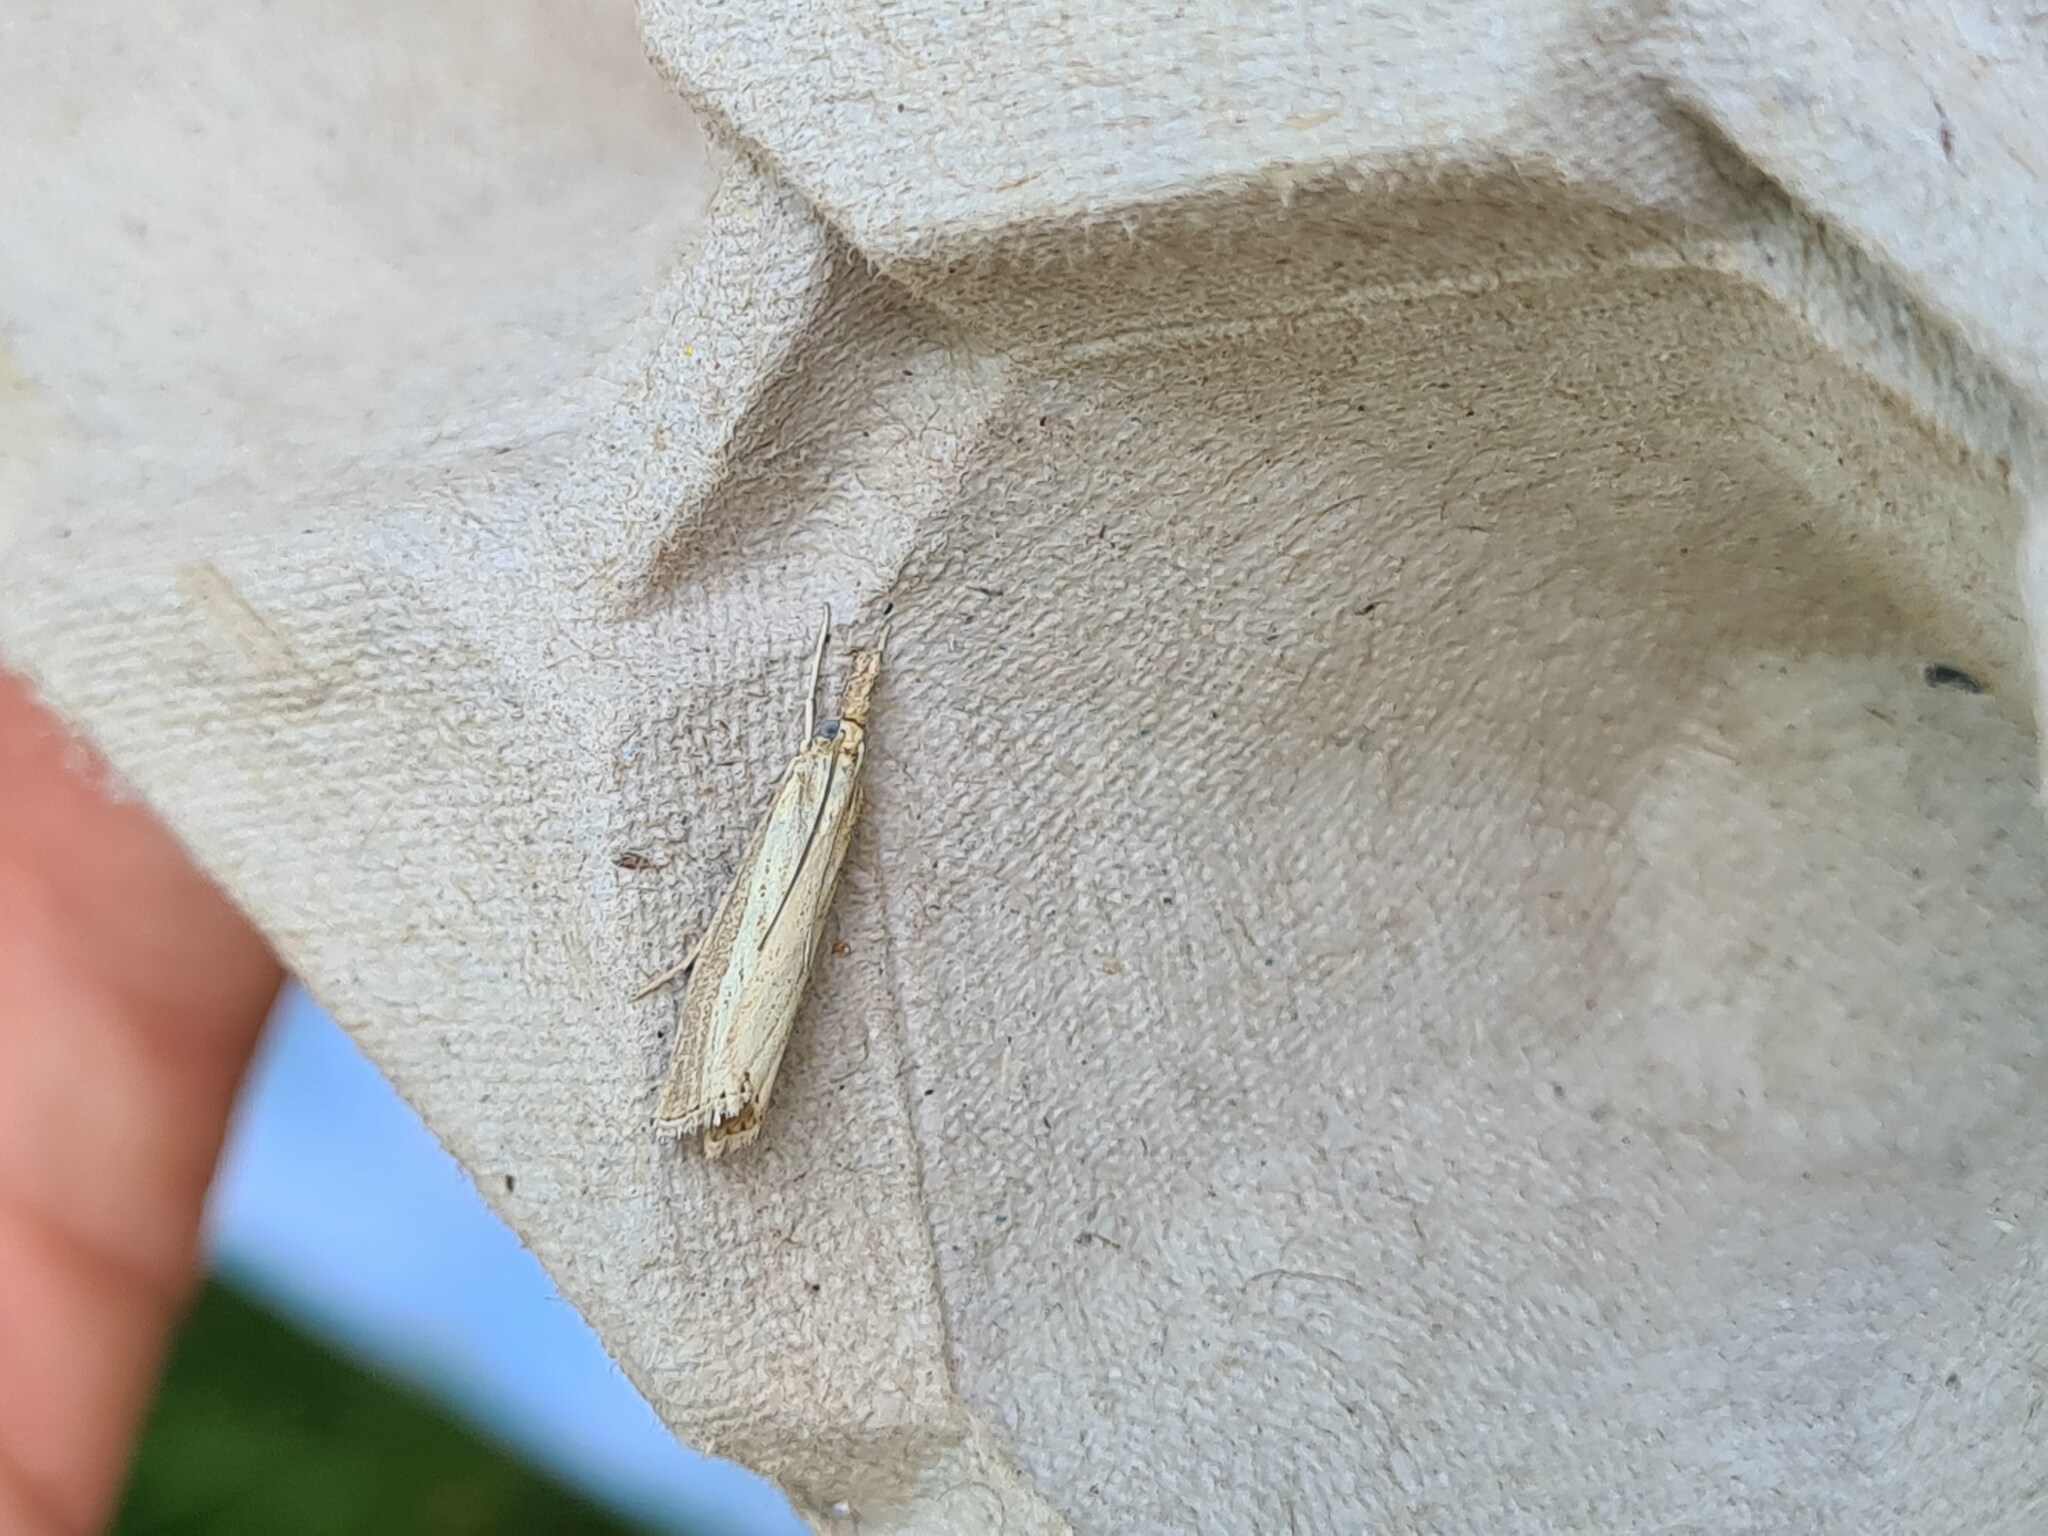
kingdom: Animalia
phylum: Arthropoda
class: Insecta
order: Lepidoptera
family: Crambidae
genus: Agriphila
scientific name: Agriphila straminella
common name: Straw grass-veneer
